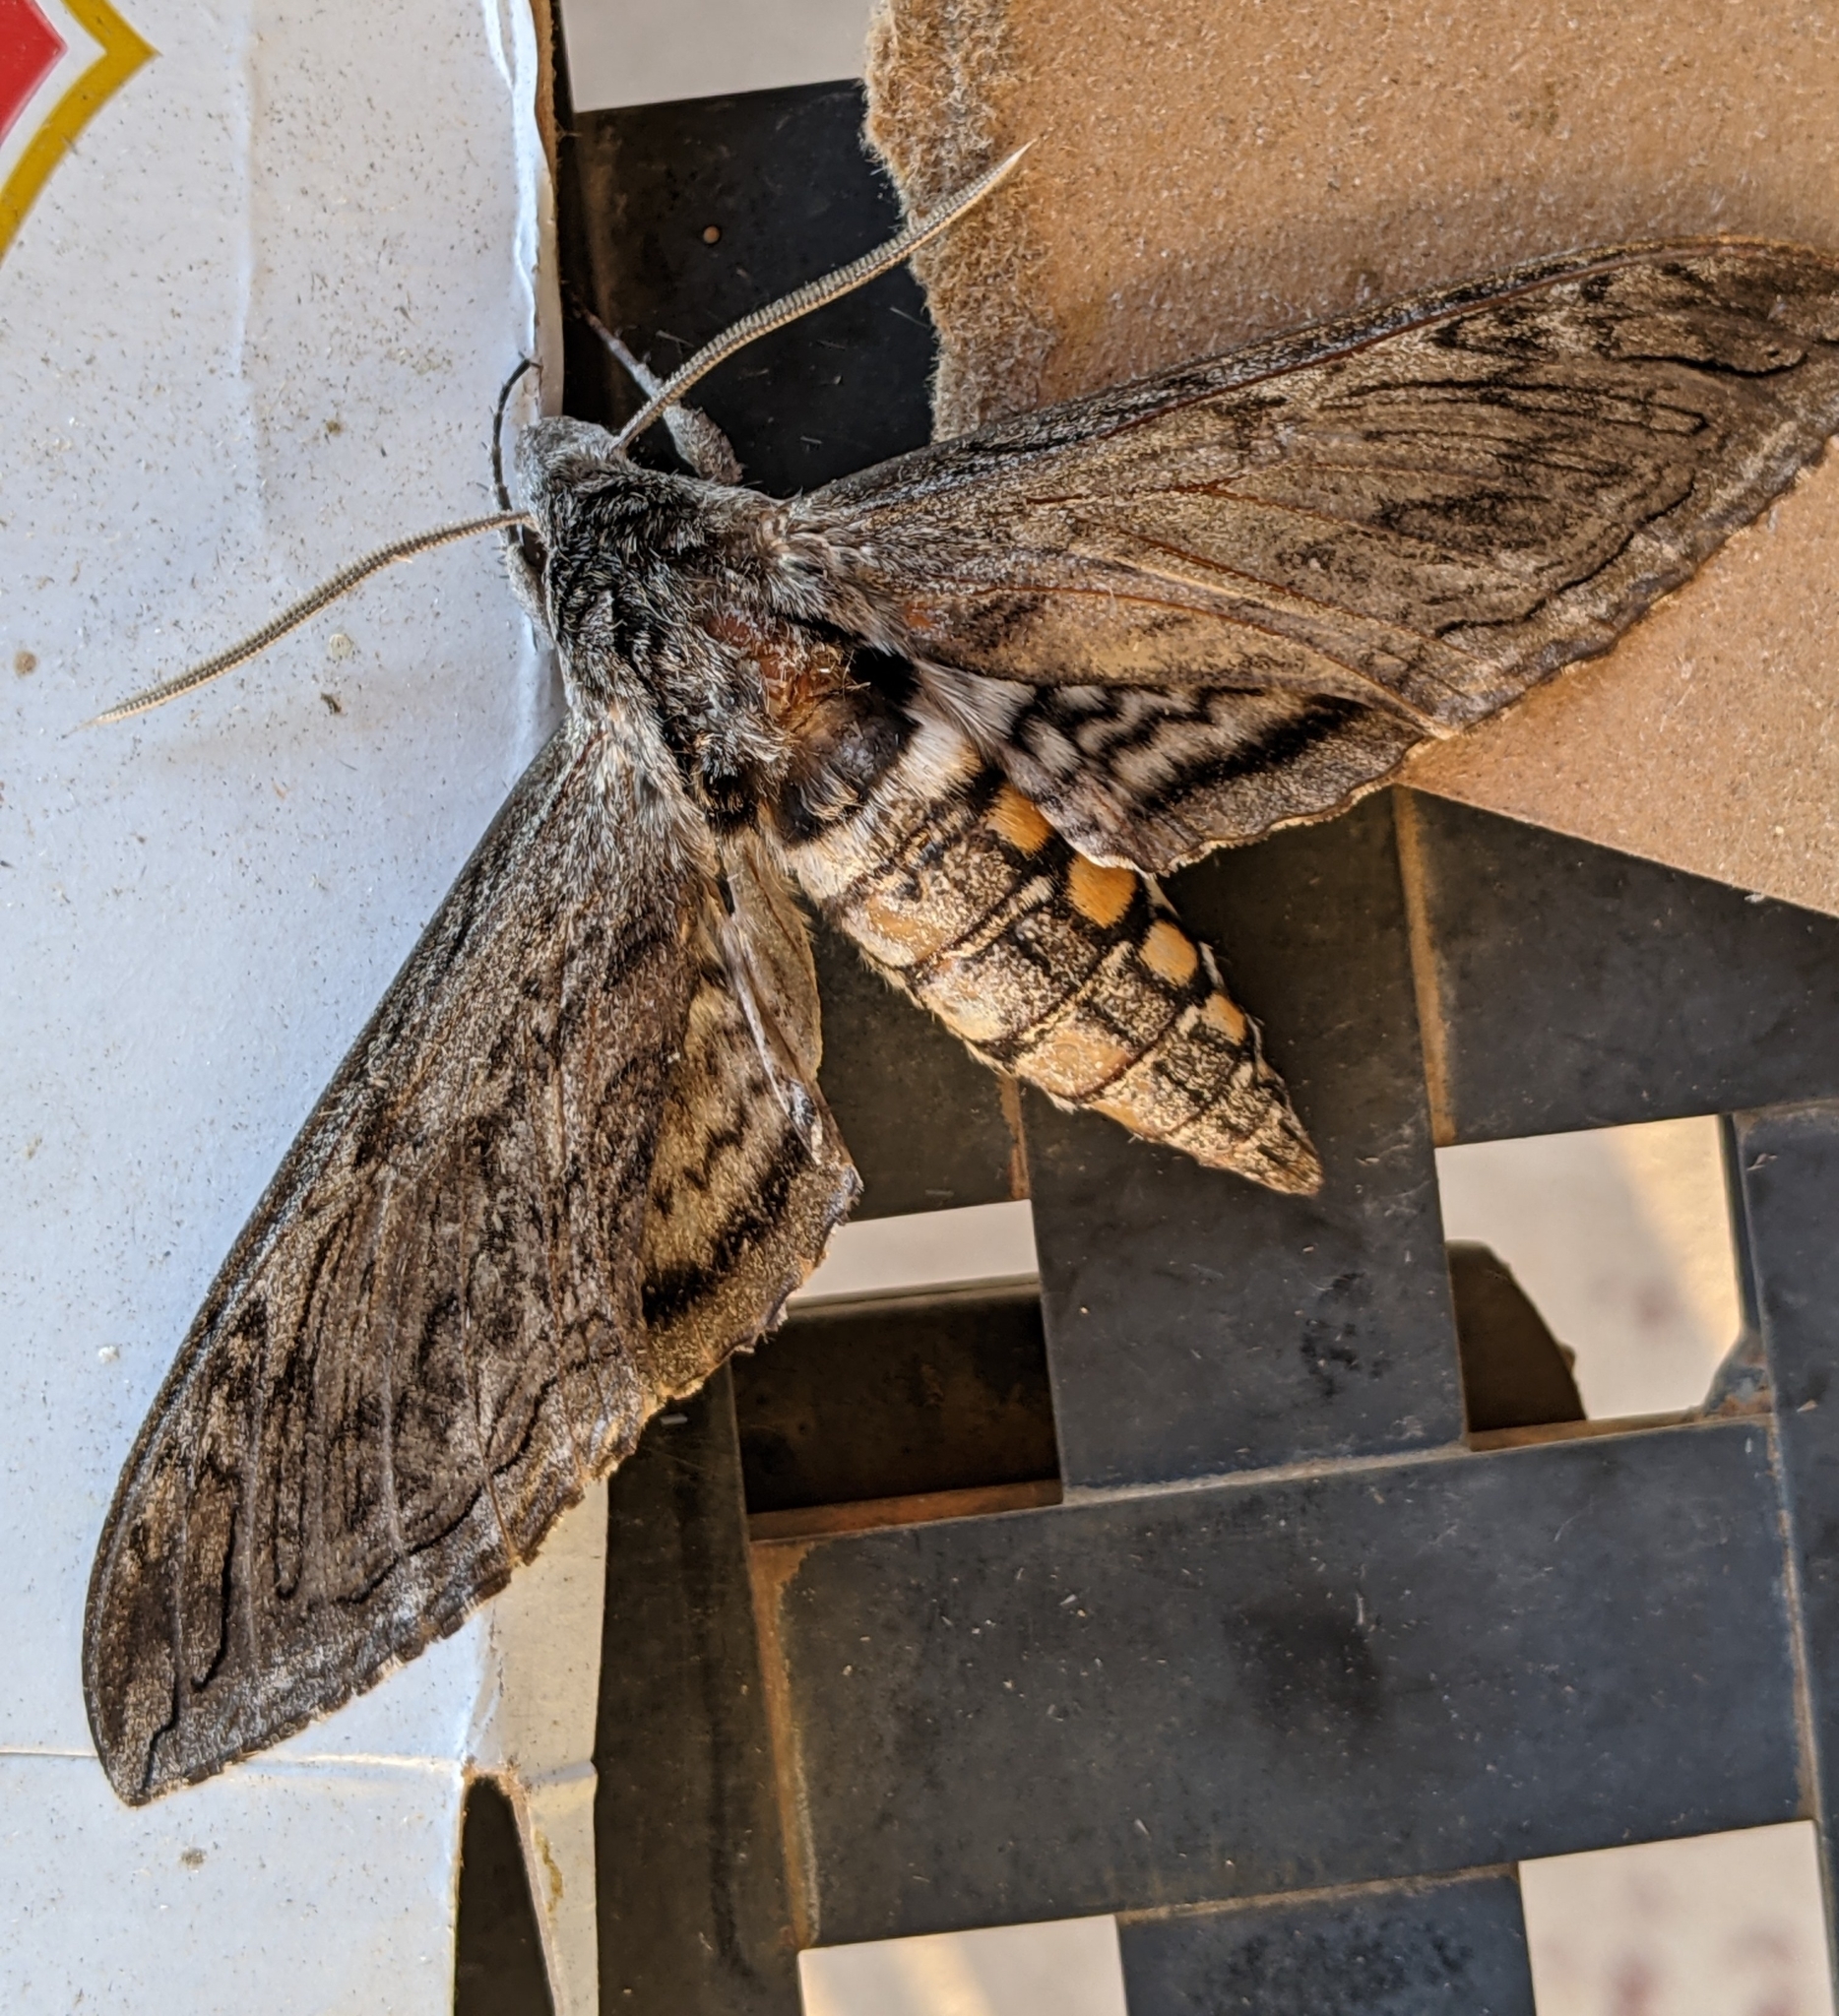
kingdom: Animalia
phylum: Arthropoda
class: Insecta
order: Lepidoptera
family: Sphingidae
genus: Manduca
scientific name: Manduca quinquemaculatus
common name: Five-spotted hawk-moth
